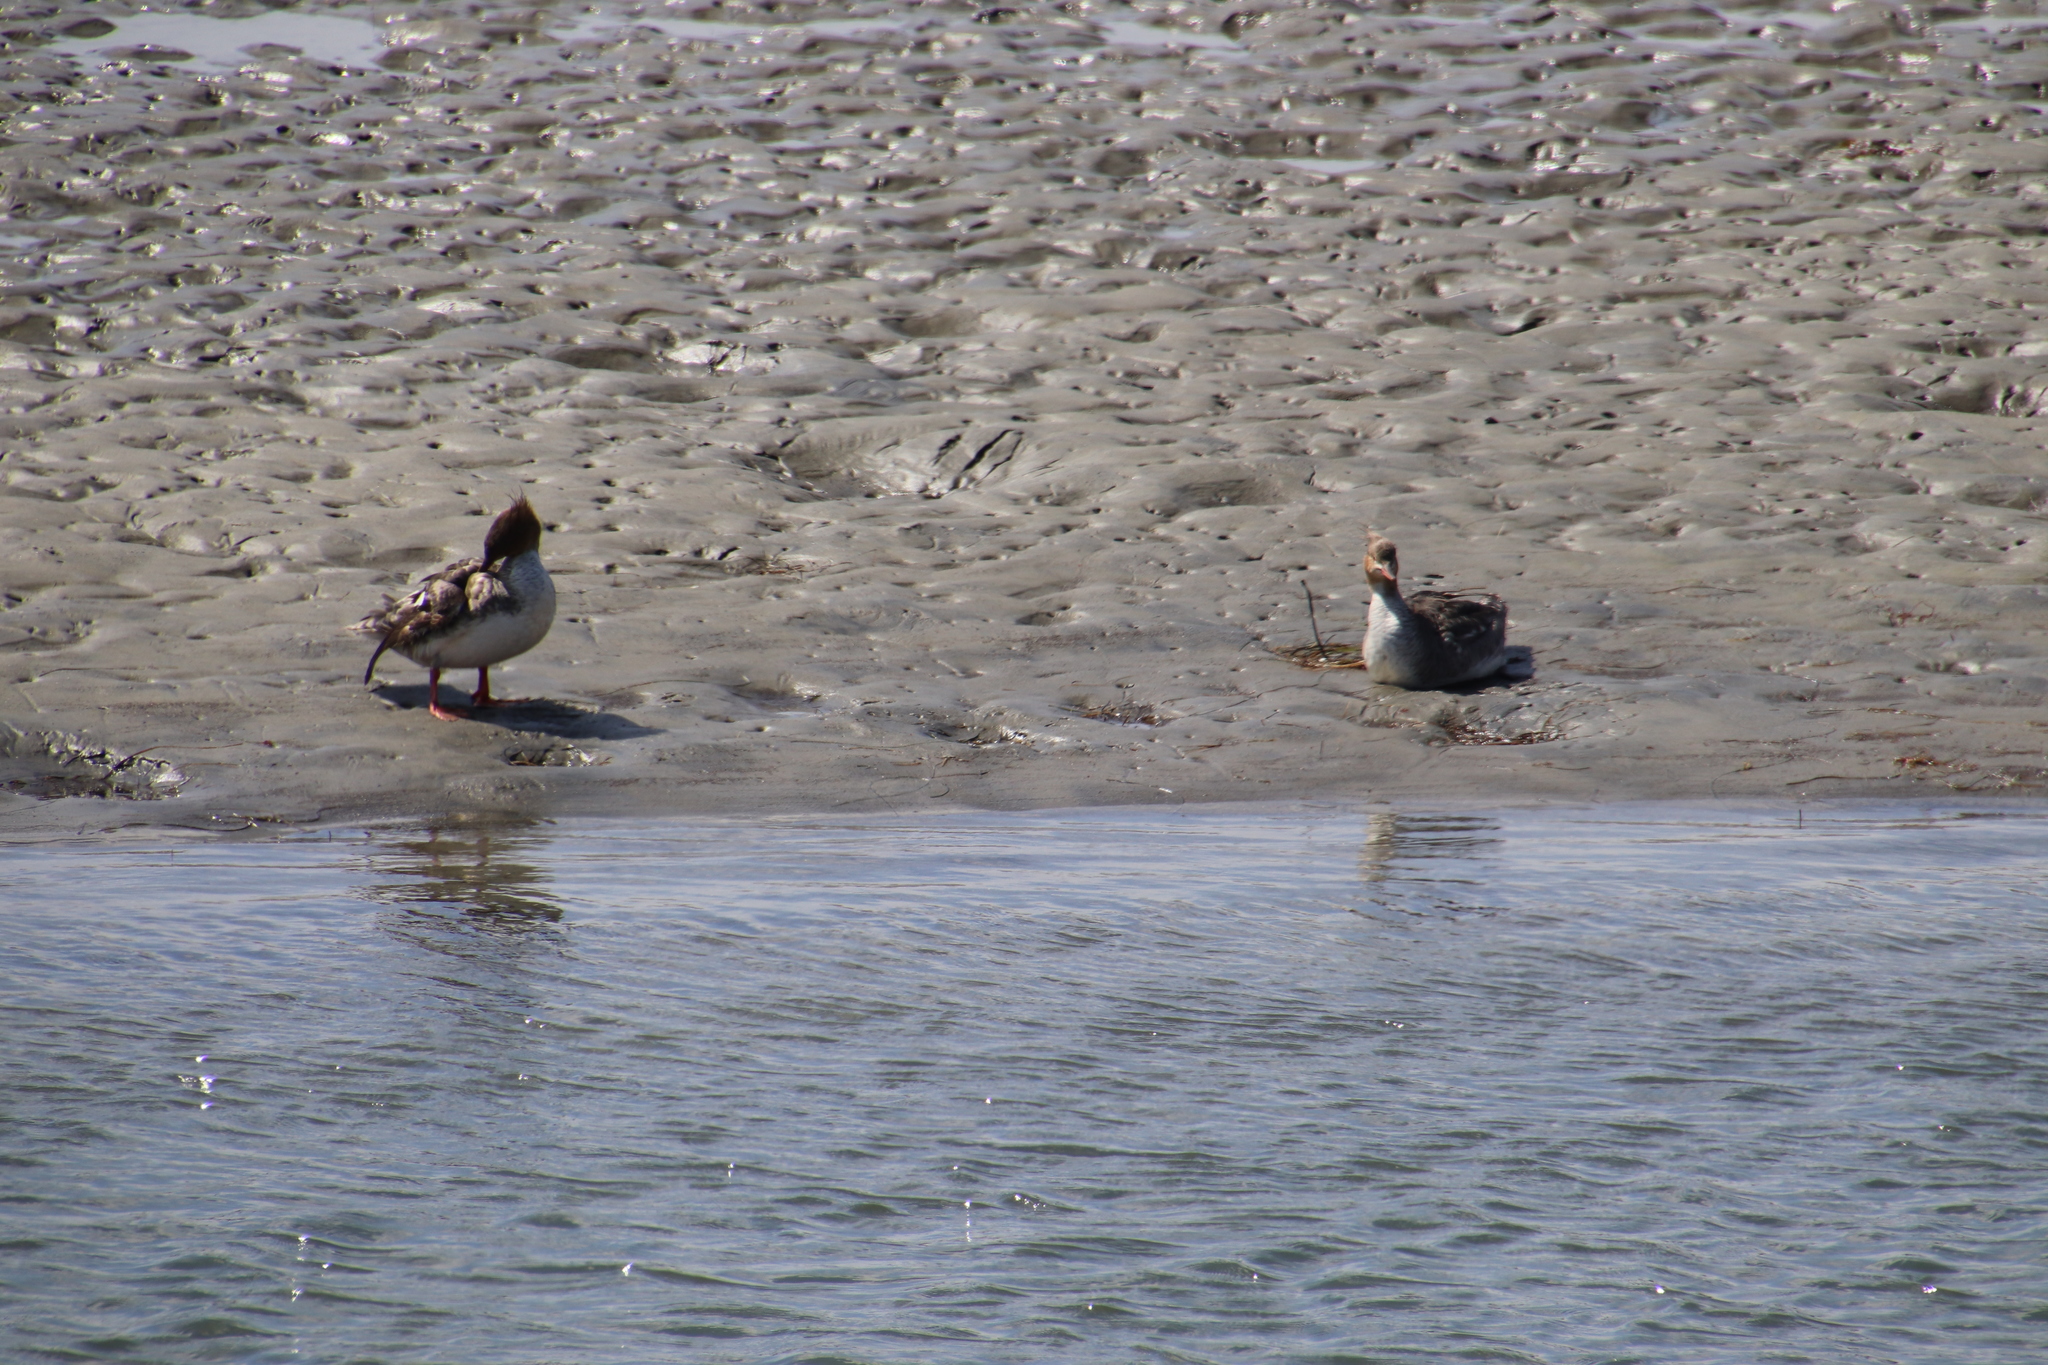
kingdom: Animalia
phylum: Chordata
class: Aves
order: Anseriformes
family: Anatidae
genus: Mergus
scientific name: Mergus serrator
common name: Red-breasted merganser
